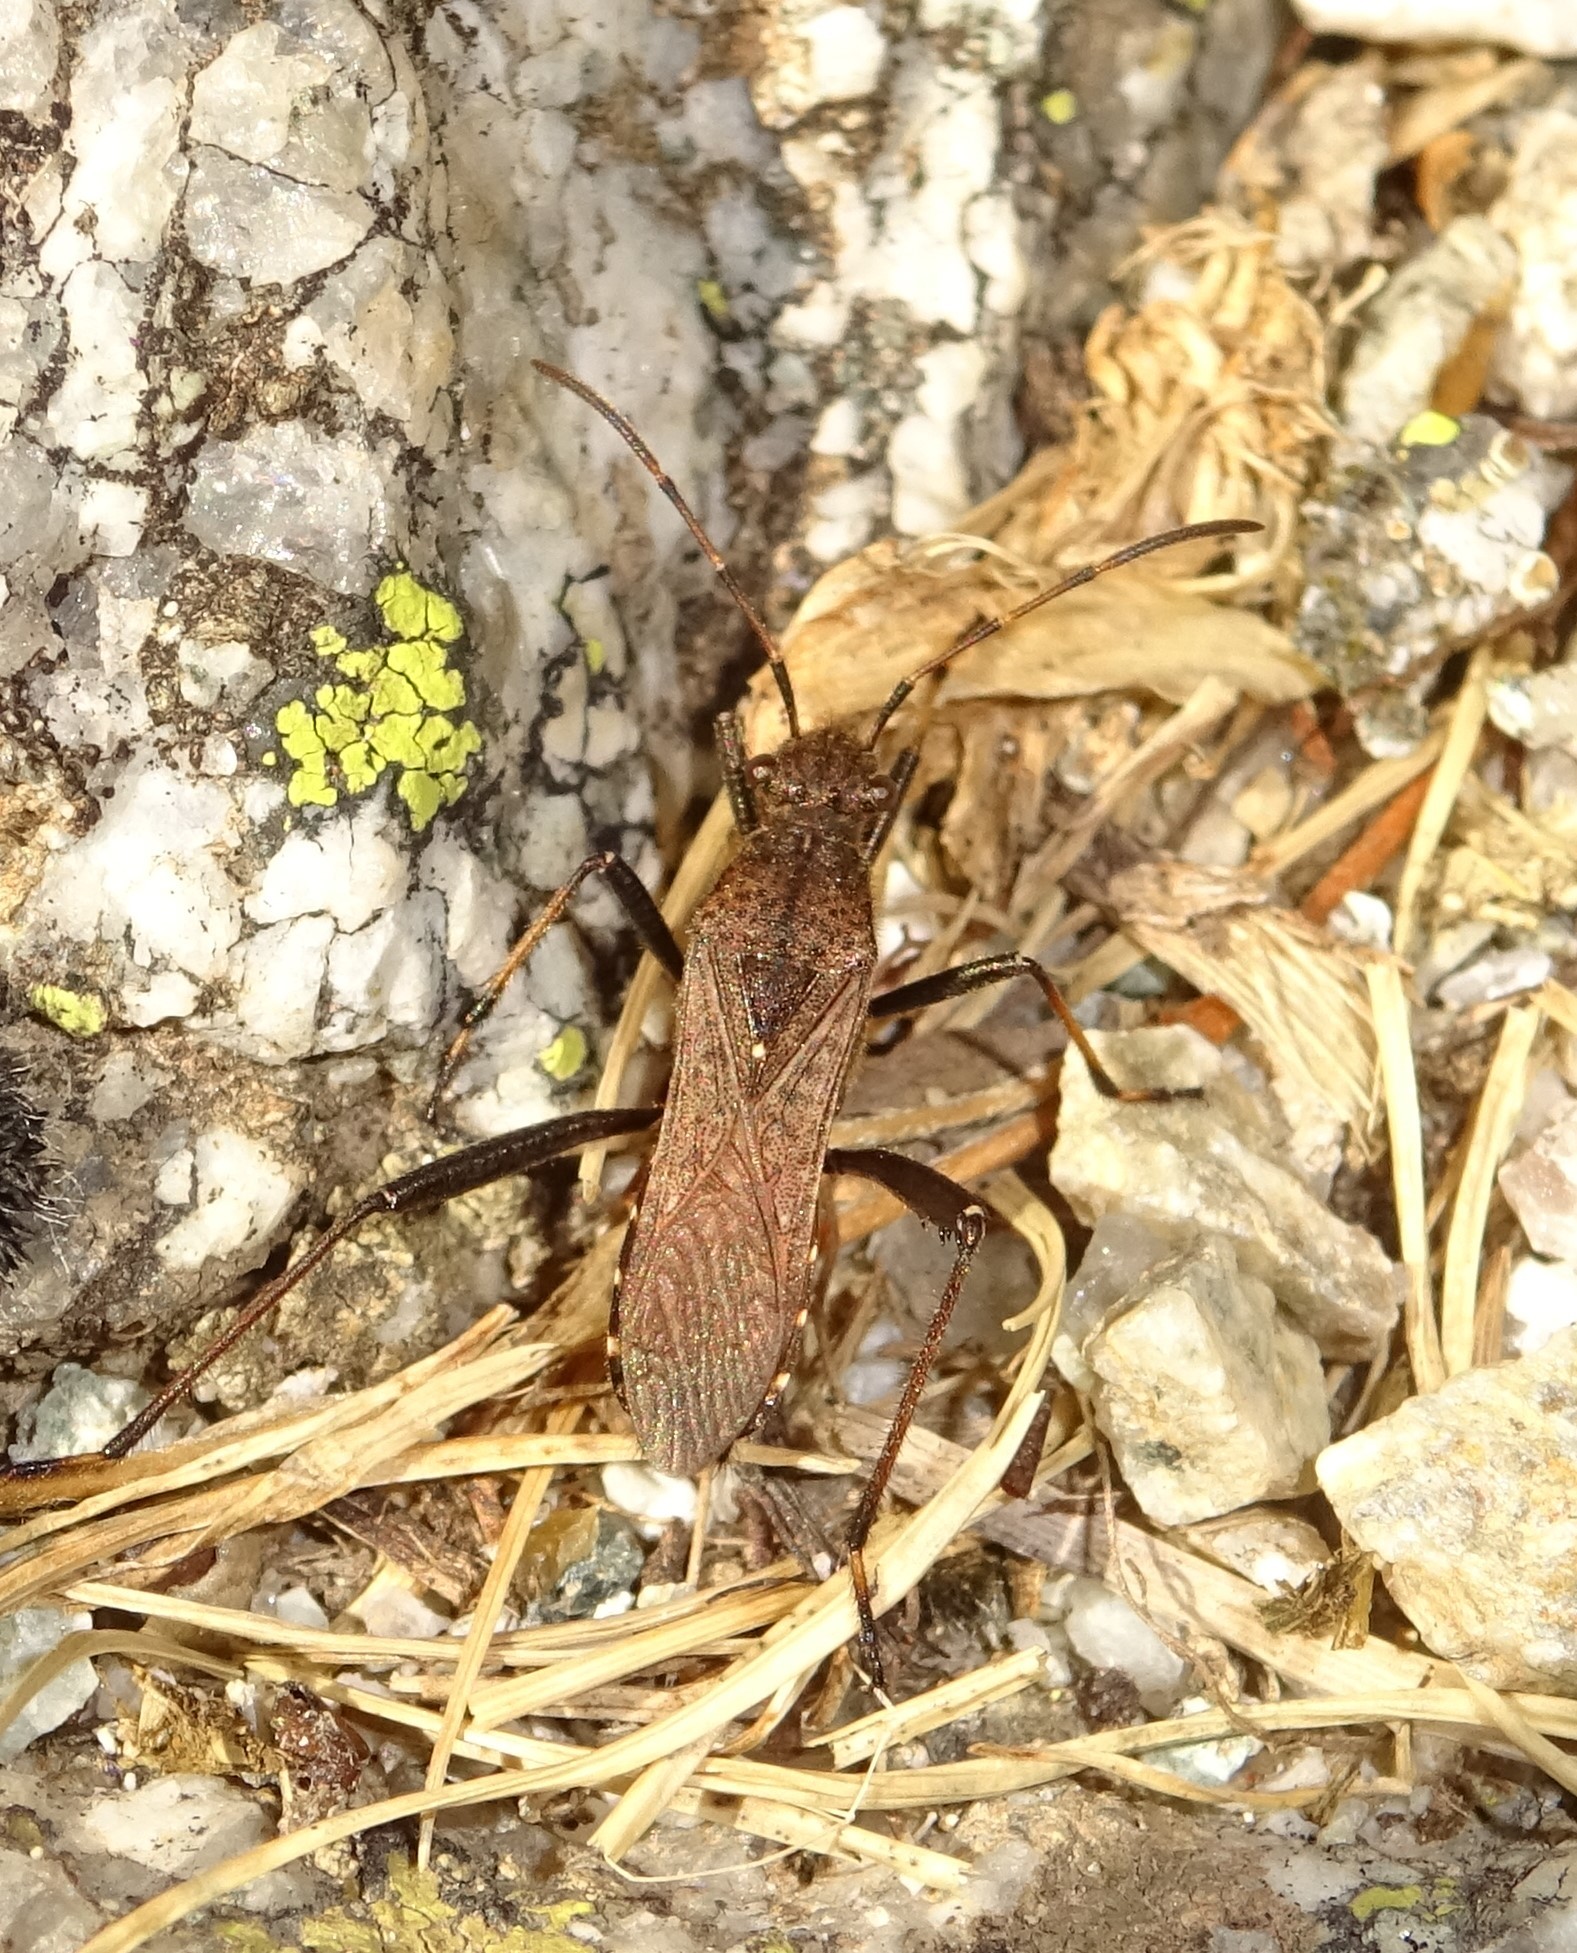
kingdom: Animalia
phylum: Arthropoda
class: Insecta
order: Hemiptera
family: Alydidae
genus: Alydus
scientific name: Alydus calcaratus
